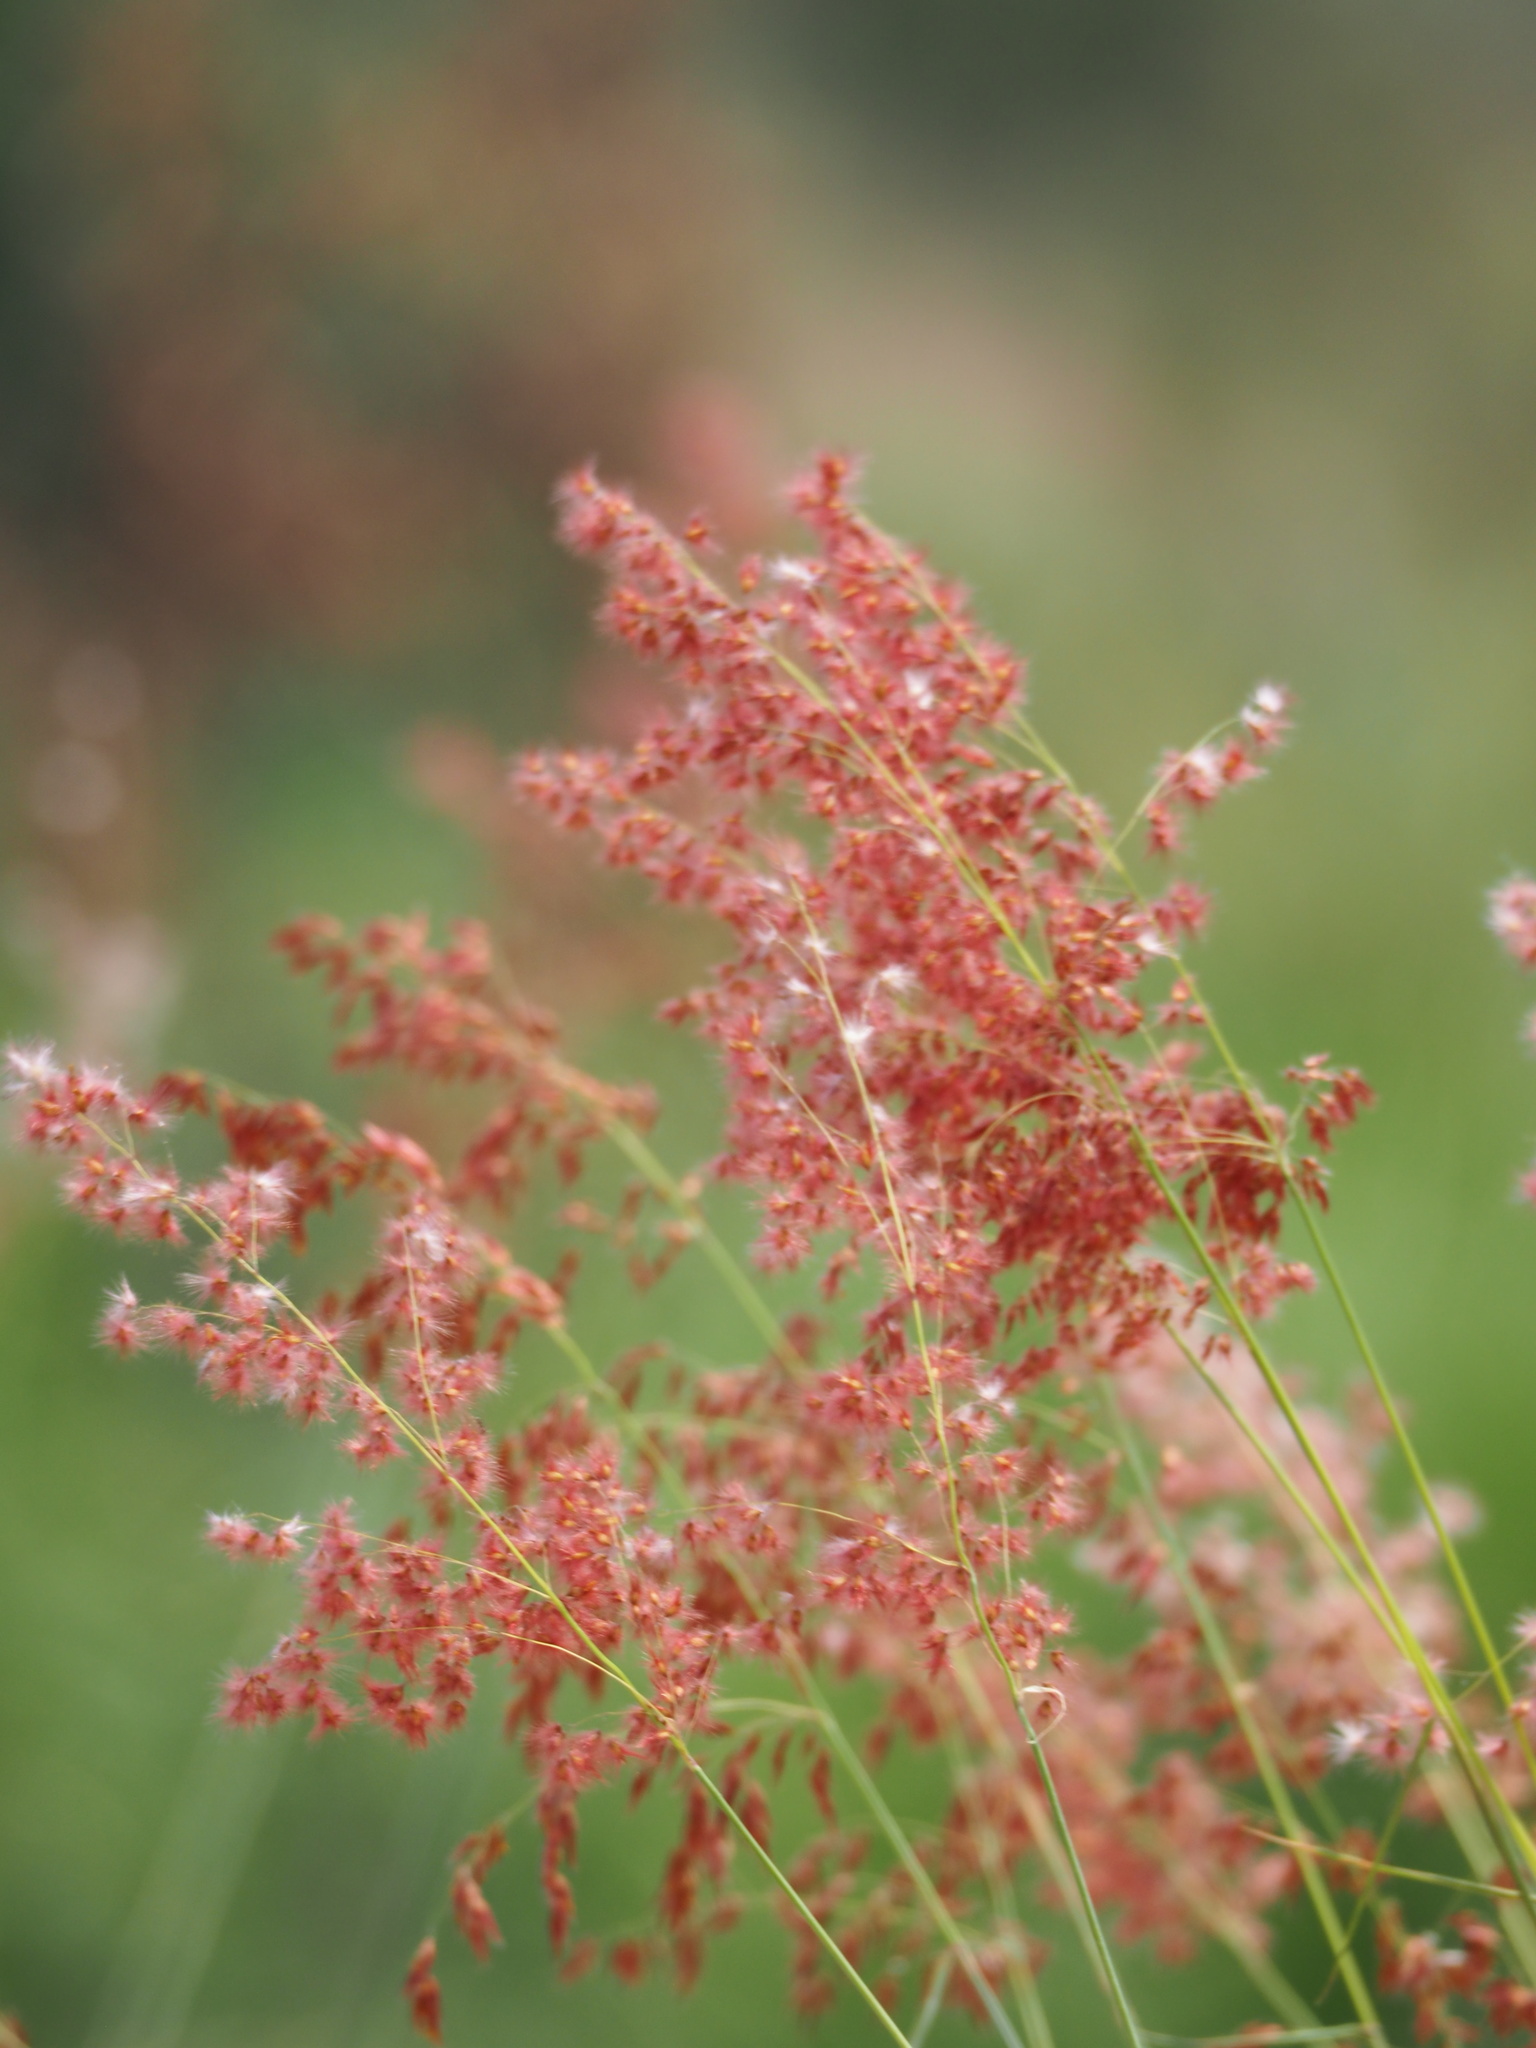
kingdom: Plantae
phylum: Tracheophyta
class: Liliopsida
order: Poales
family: Poaceae
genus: Melinis
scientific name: Melinis repens
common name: Rose natal grass
